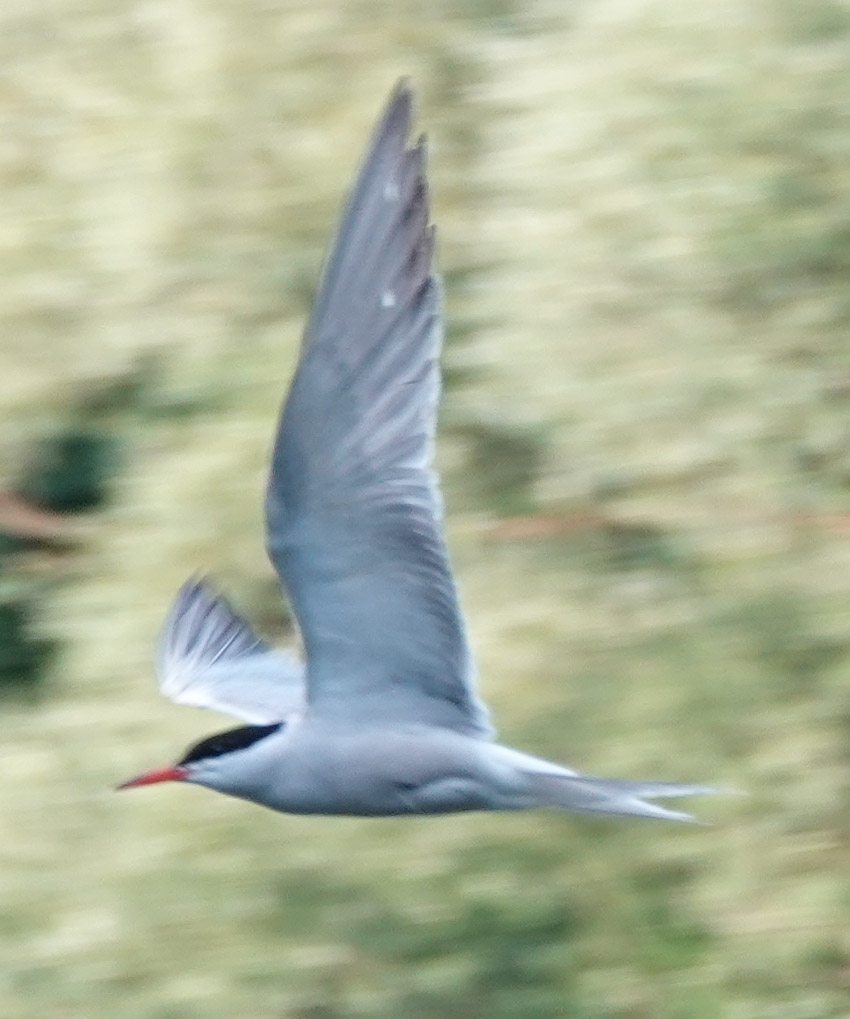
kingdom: Animalia
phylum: Chordata
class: Aves
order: Charadriiformes
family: Laridae
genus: Sterna
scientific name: Sterna hirundo
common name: Common tern
